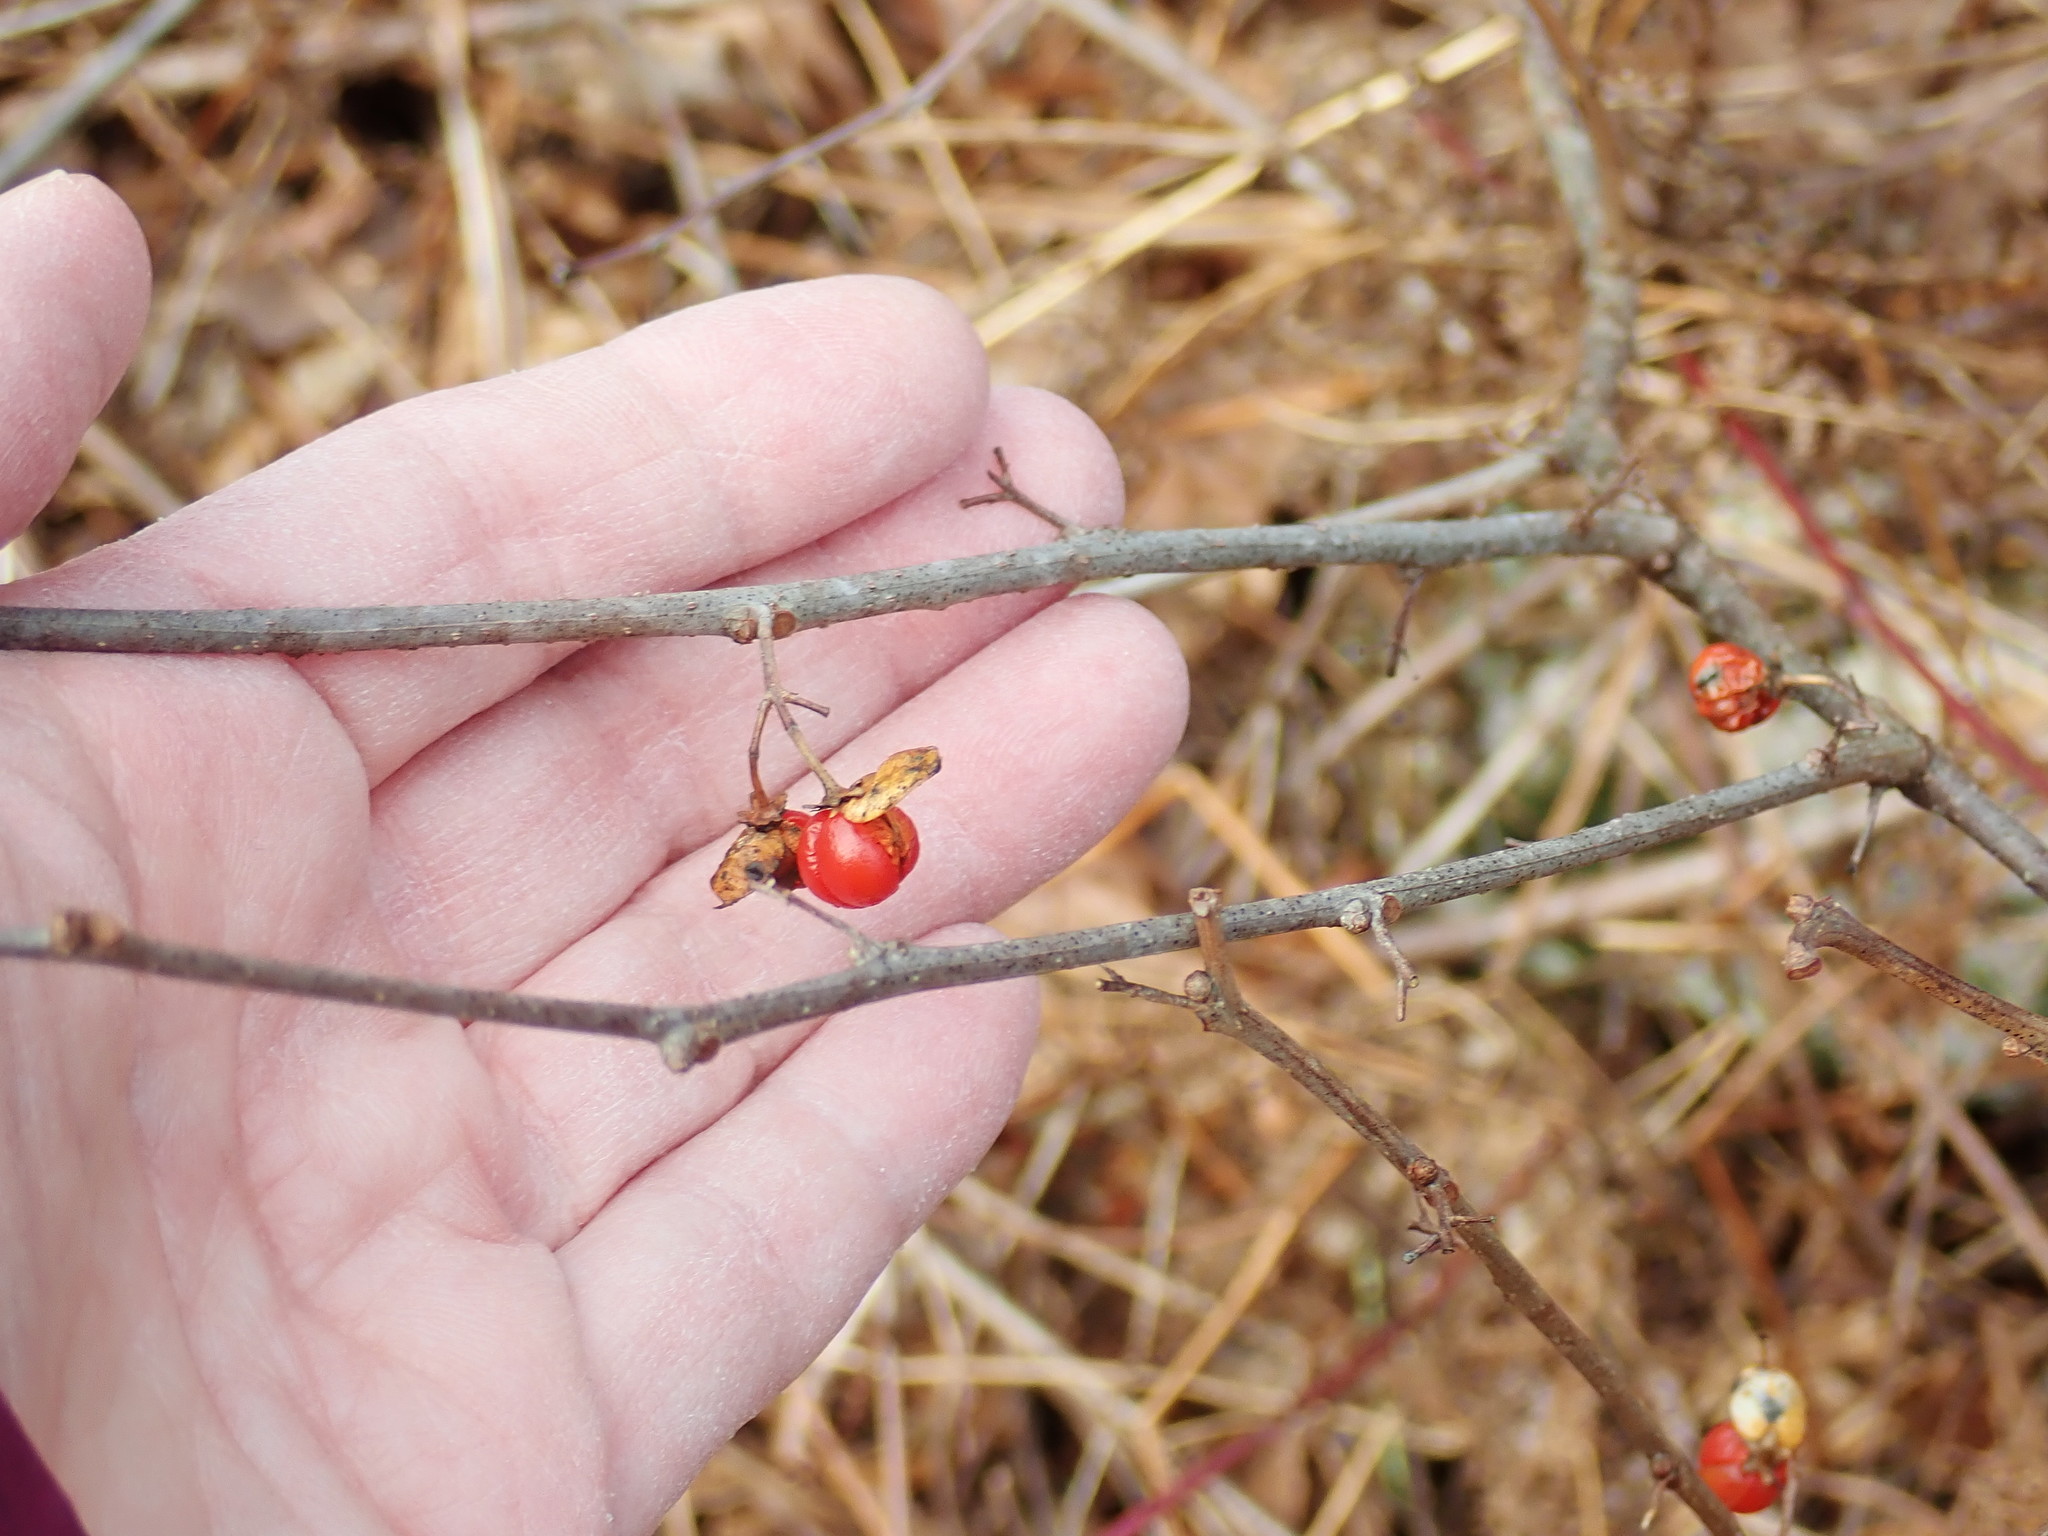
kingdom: Plantae
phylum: Tracheophyta
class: Magnoliopsida
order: Celastrales
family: Celastraceae
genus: Celastrus
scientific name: Celastrus orbiculatus
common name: Oriental bittersweet
